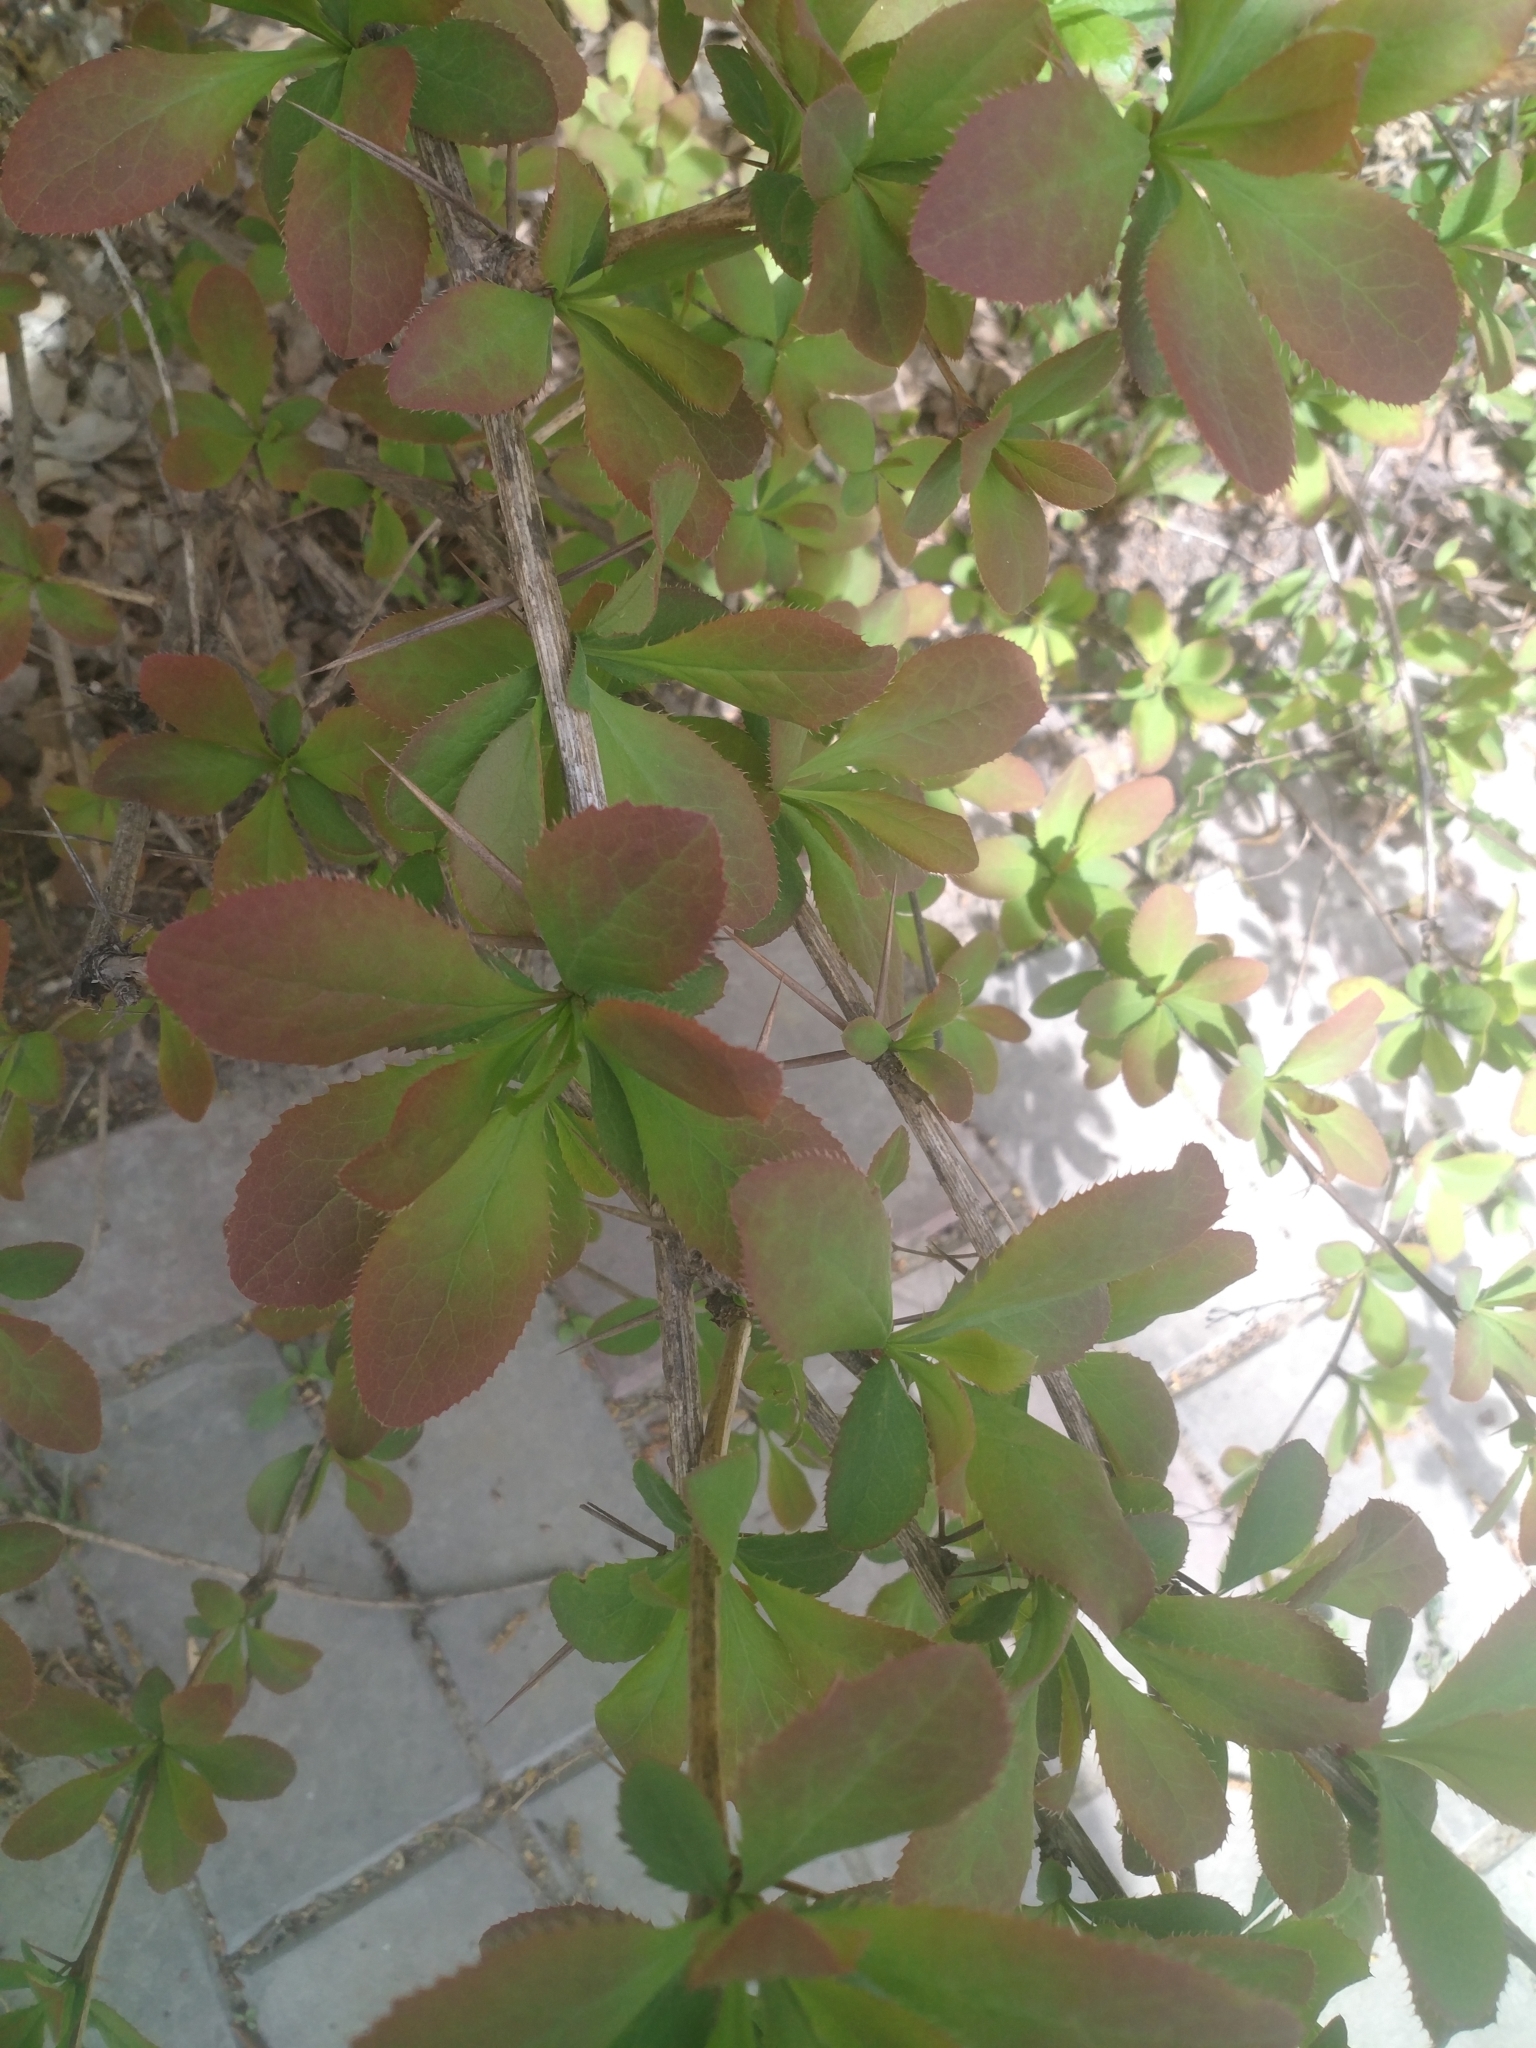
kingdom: Plantae
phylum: Tracheophyta
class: Magnoliopsida
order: Ranunculales
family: Berberidaceae
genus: Berberis
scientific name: Berberis vulgaris
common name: Barberry
